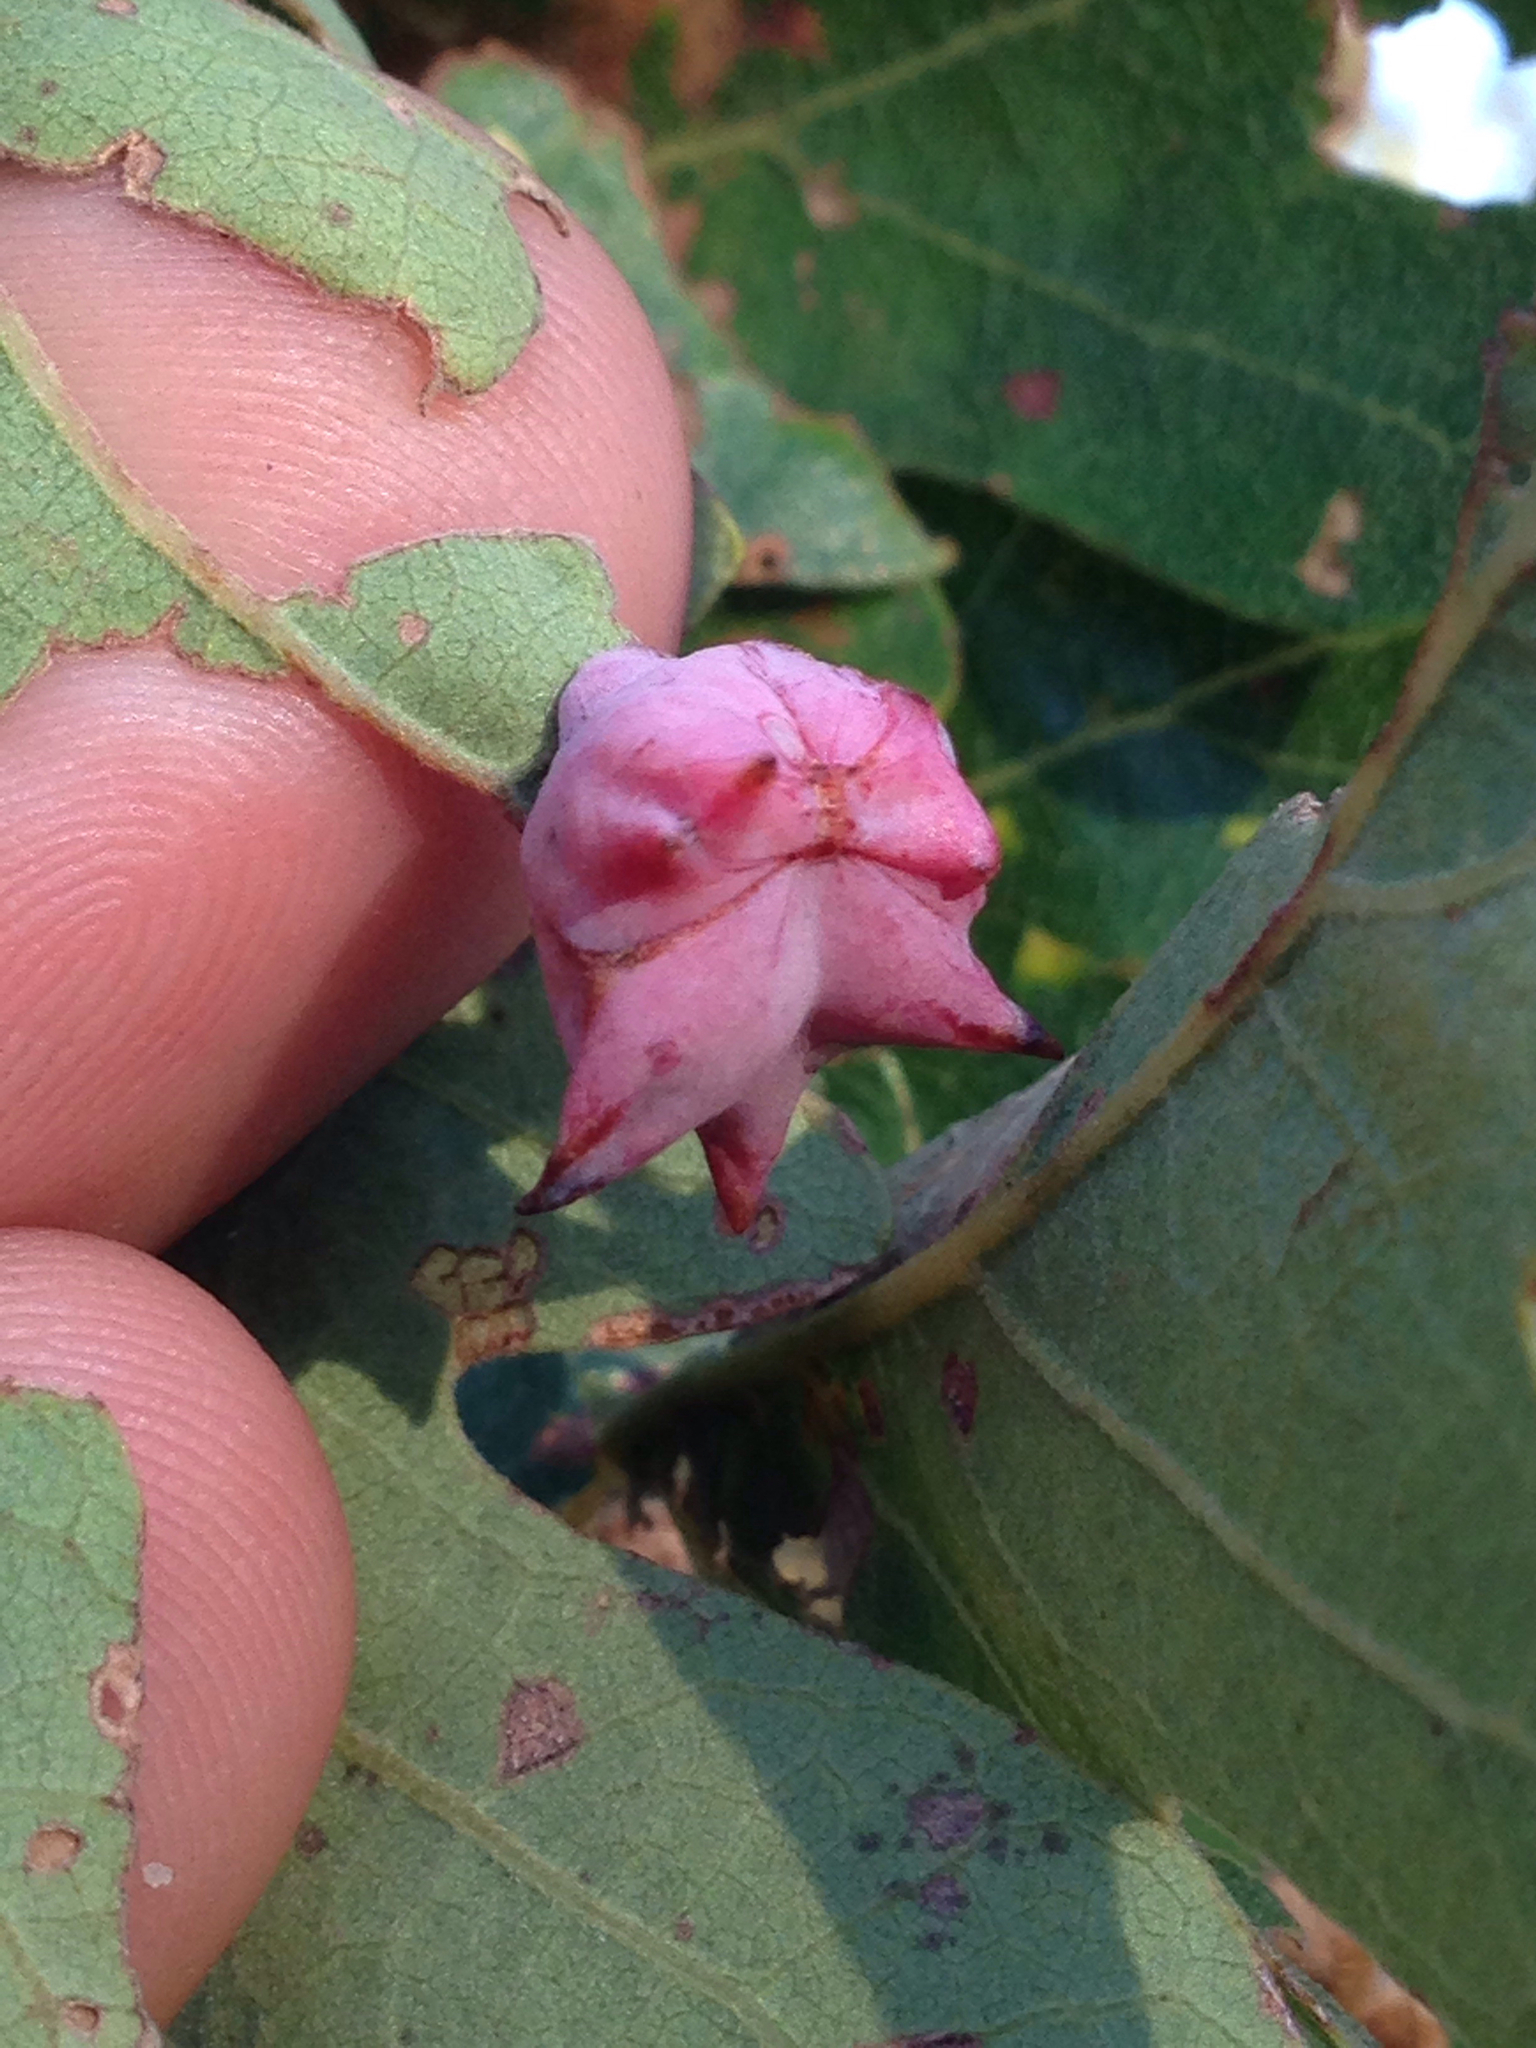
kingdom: Animalia
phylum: Arthropoda
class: Insecta
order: Hymenoptera
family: Cynipidae
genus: Cynips
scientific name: Cynips douglasi
